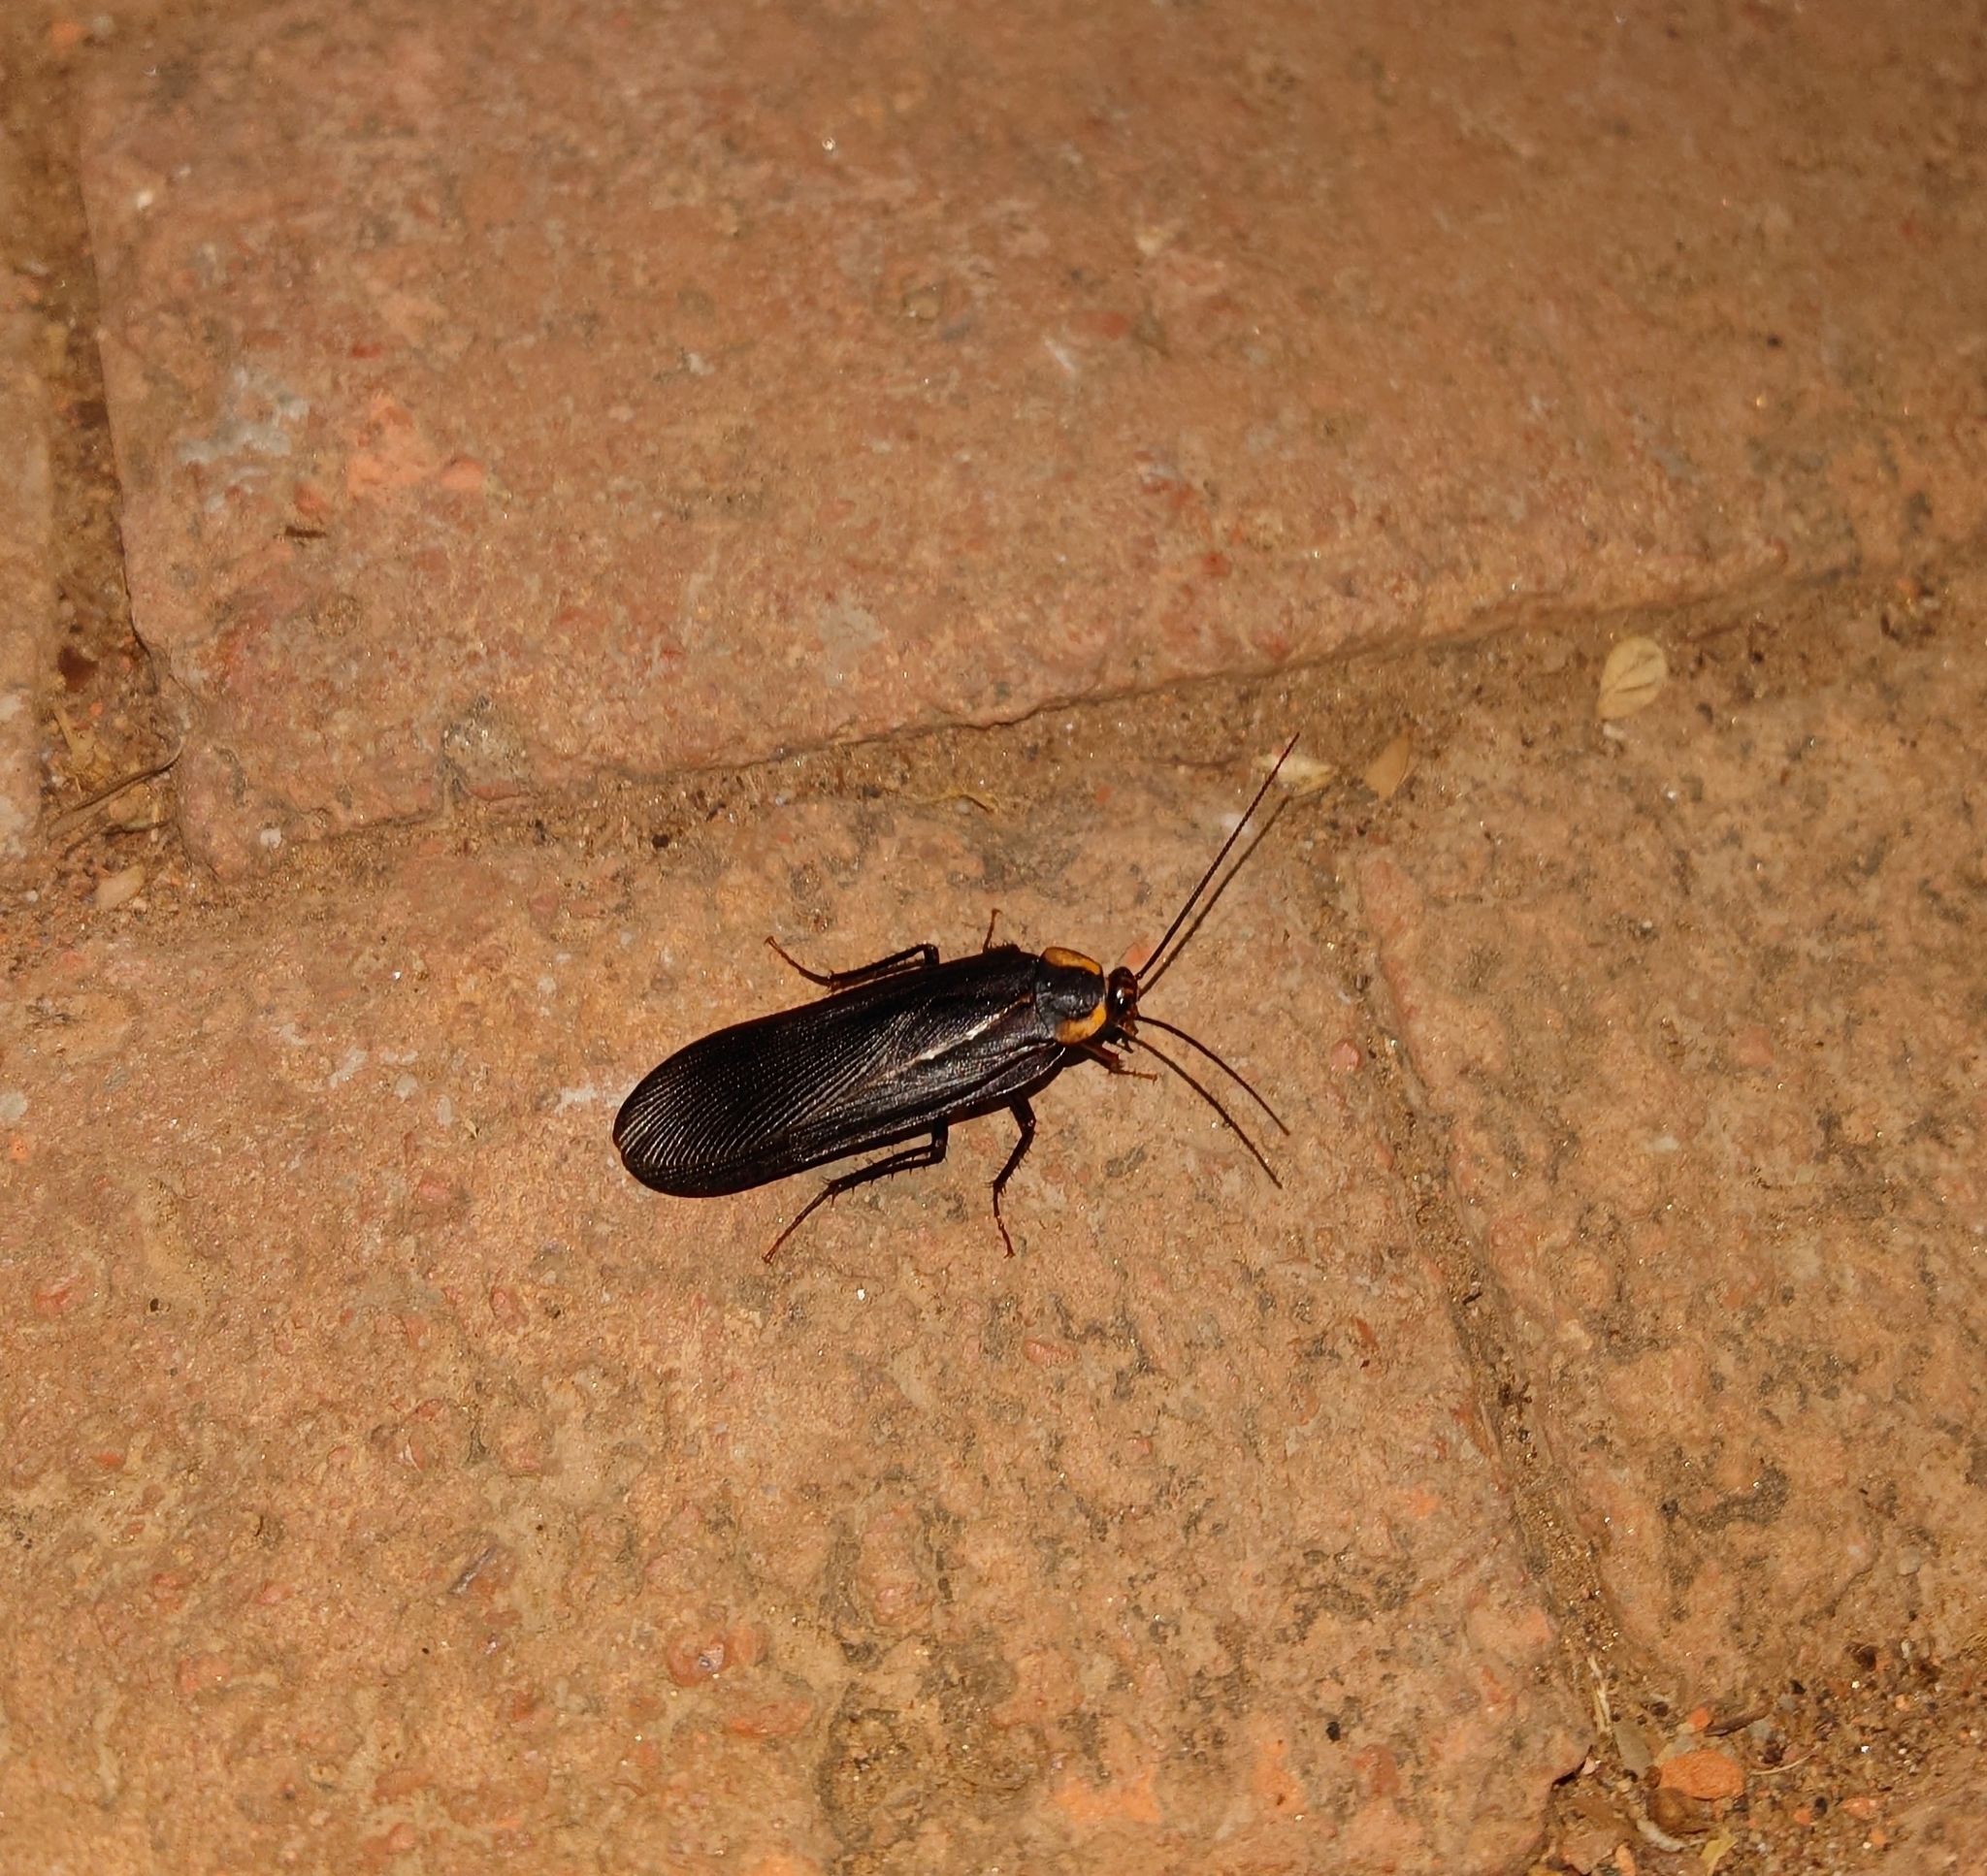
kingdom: Animalia
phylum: Arthropoda
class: Insecta
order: Blattodea
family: Blattidae
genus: Deropeltis
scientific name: Deropeltis paulinoi
